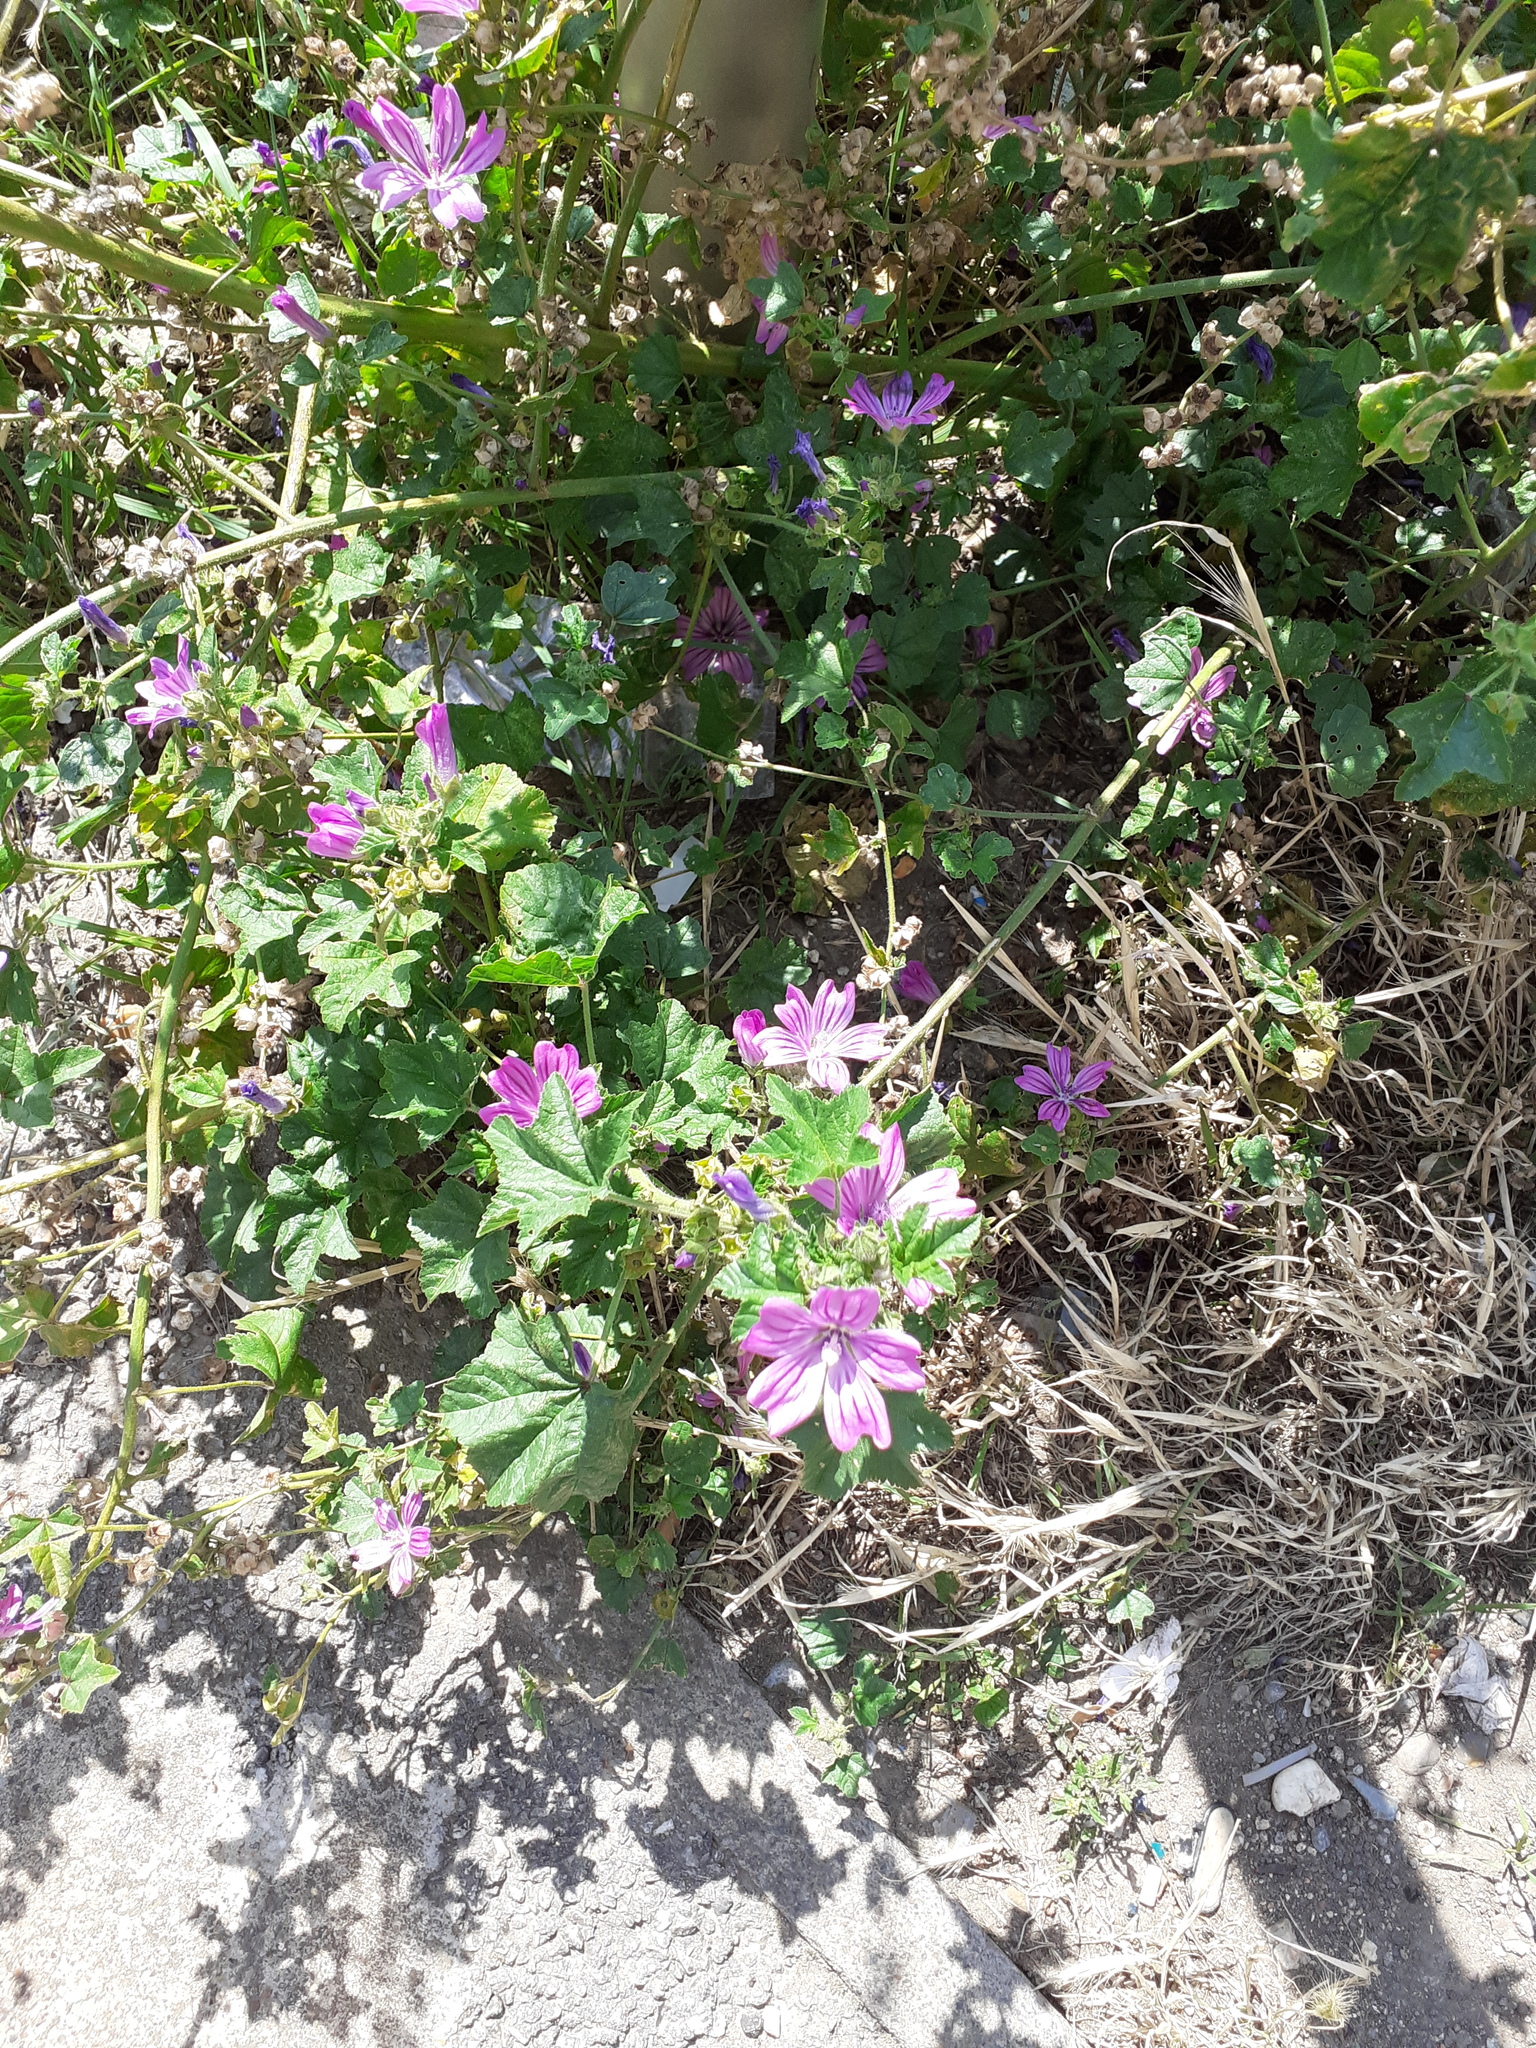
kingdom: Plantae
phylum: Tracheophyta
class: Magnoliopsida
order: Malvales
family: Malvaceae
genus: Malva
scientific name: Malva sylvestris
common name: Common mallow
